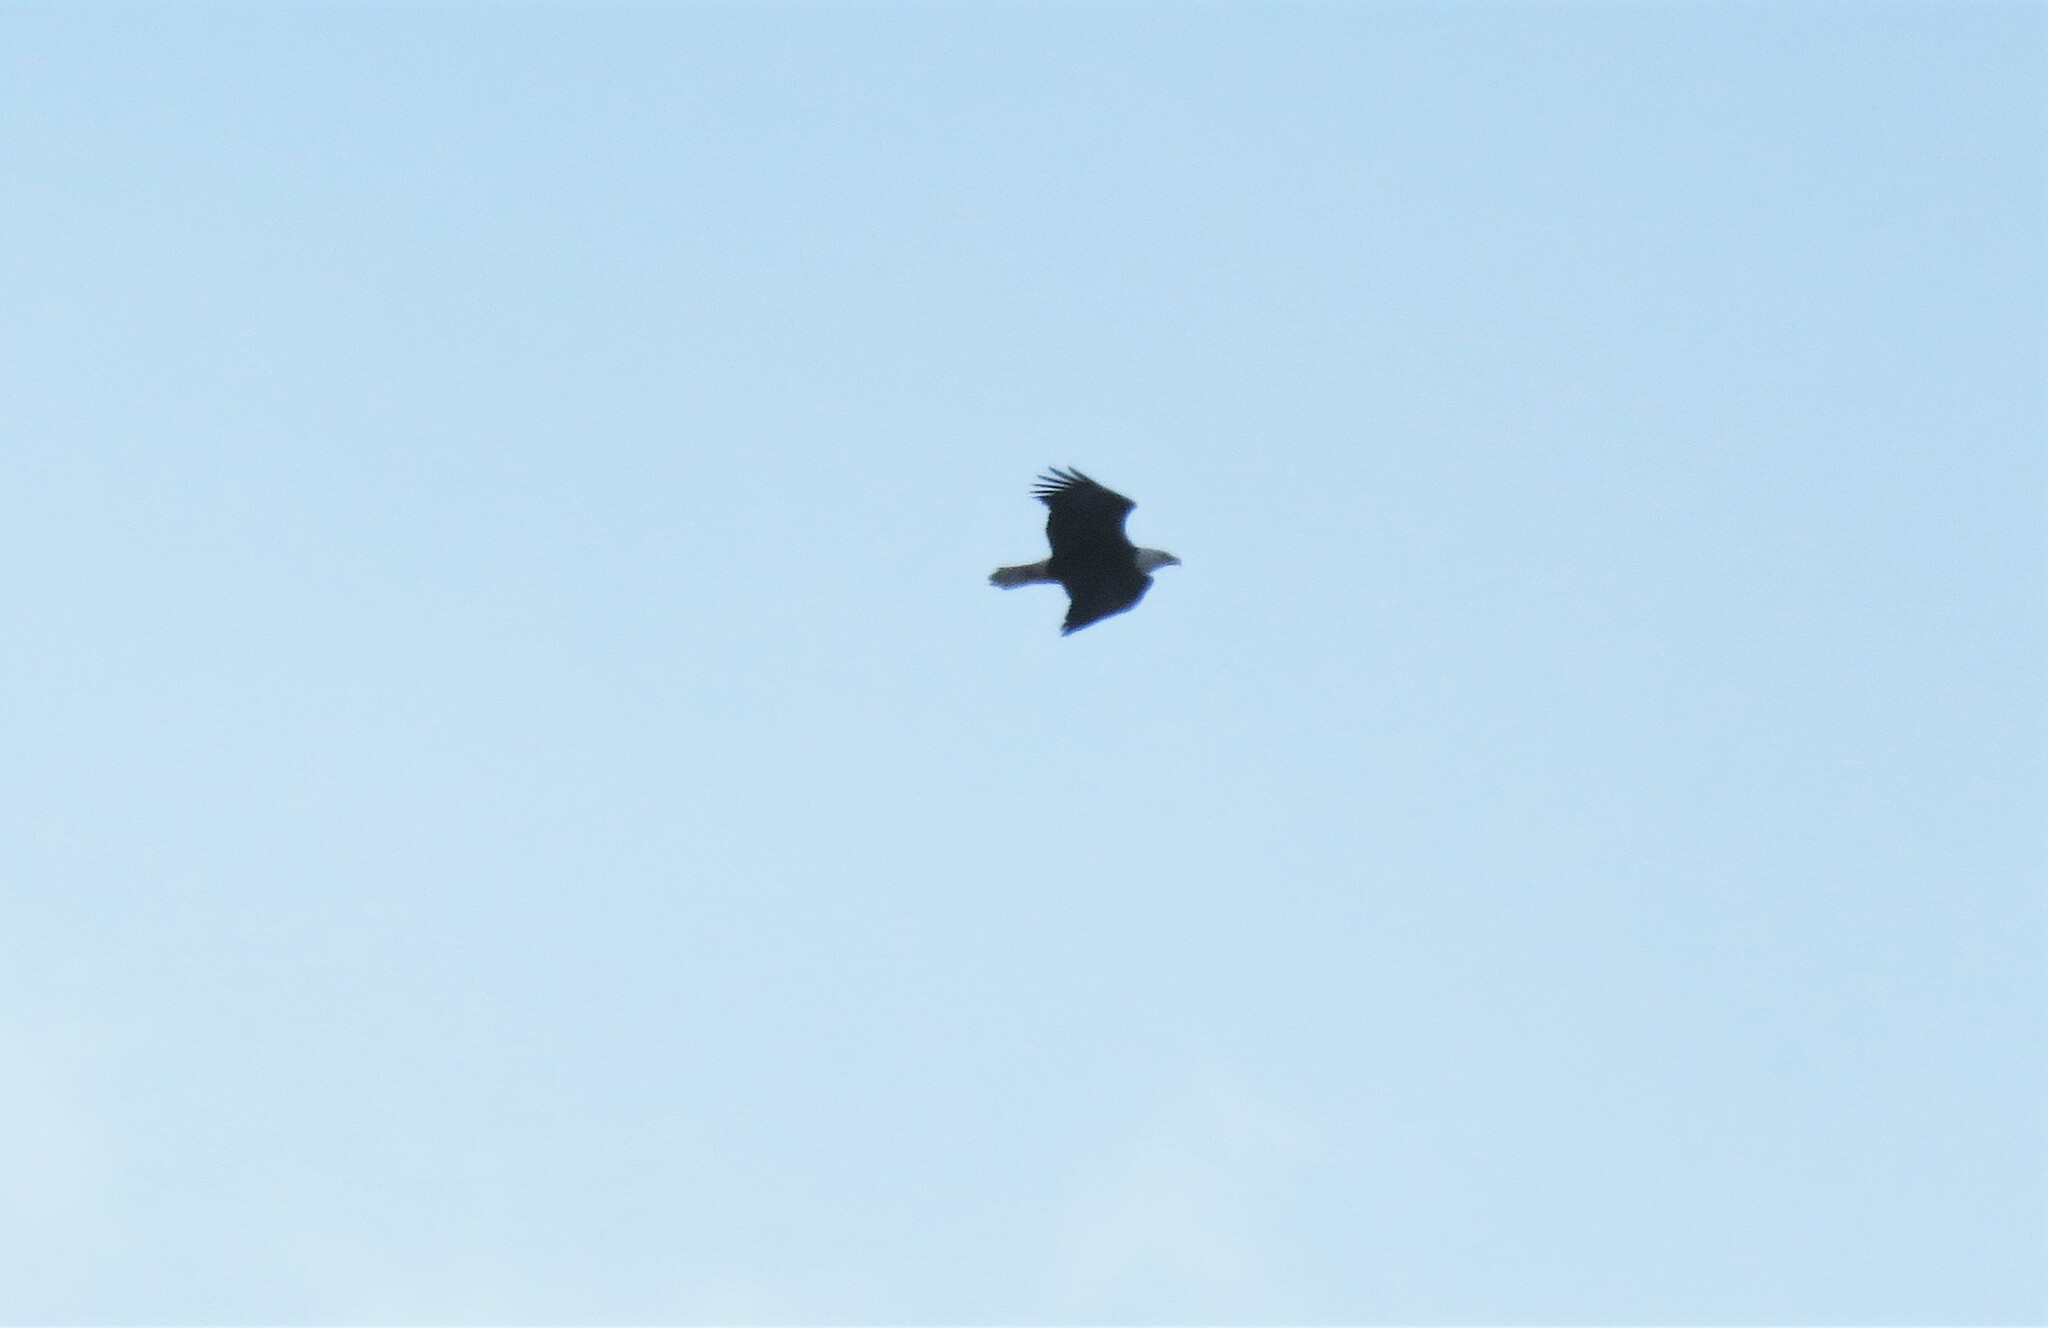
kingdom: Animalia
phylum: Chordata
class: Aves
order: Accipitriformes
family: Accipitridae
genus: Haliaeetus
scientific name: Haliaeetus leucocephalus
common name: Bald eagle
